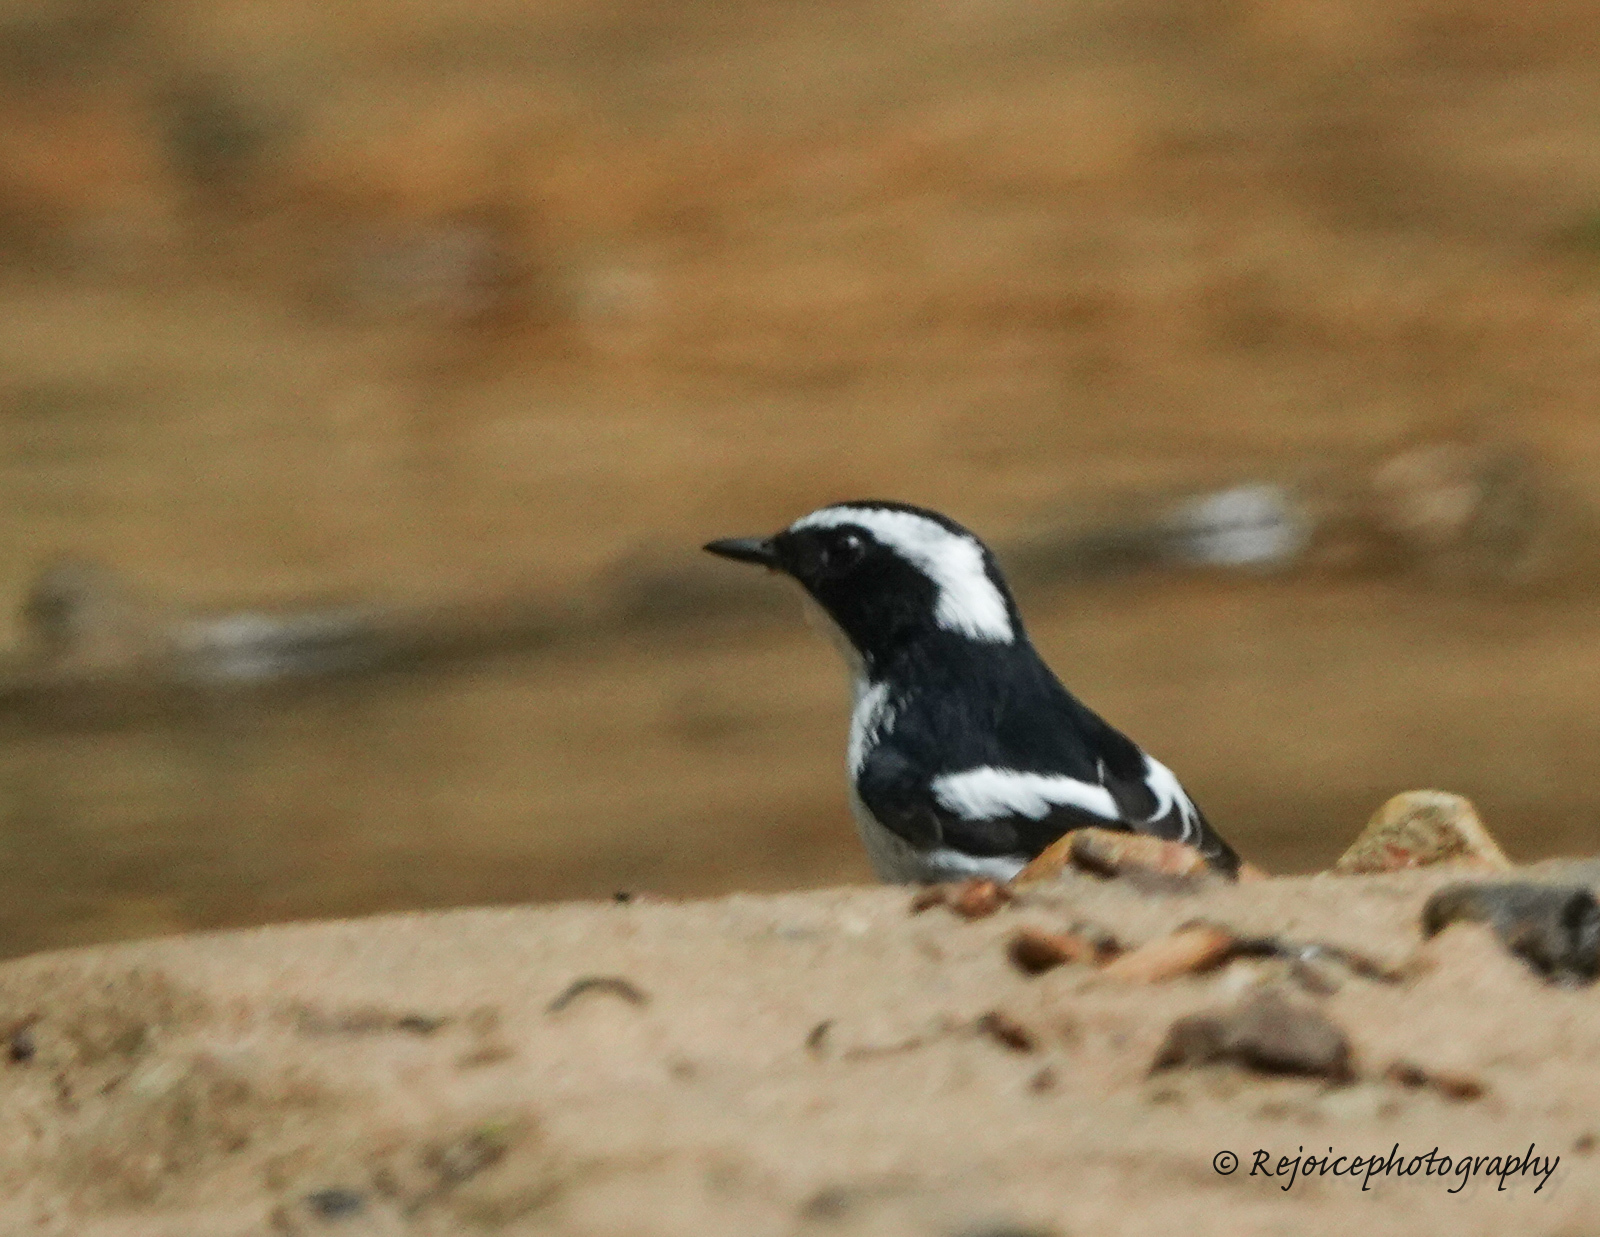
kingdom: Animalia
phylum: Chordata
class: Aves
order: Passeriformes
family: Muscicapidae
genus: Ficedula
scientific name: Ficedula westermanni
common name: Little pied flycatcher
